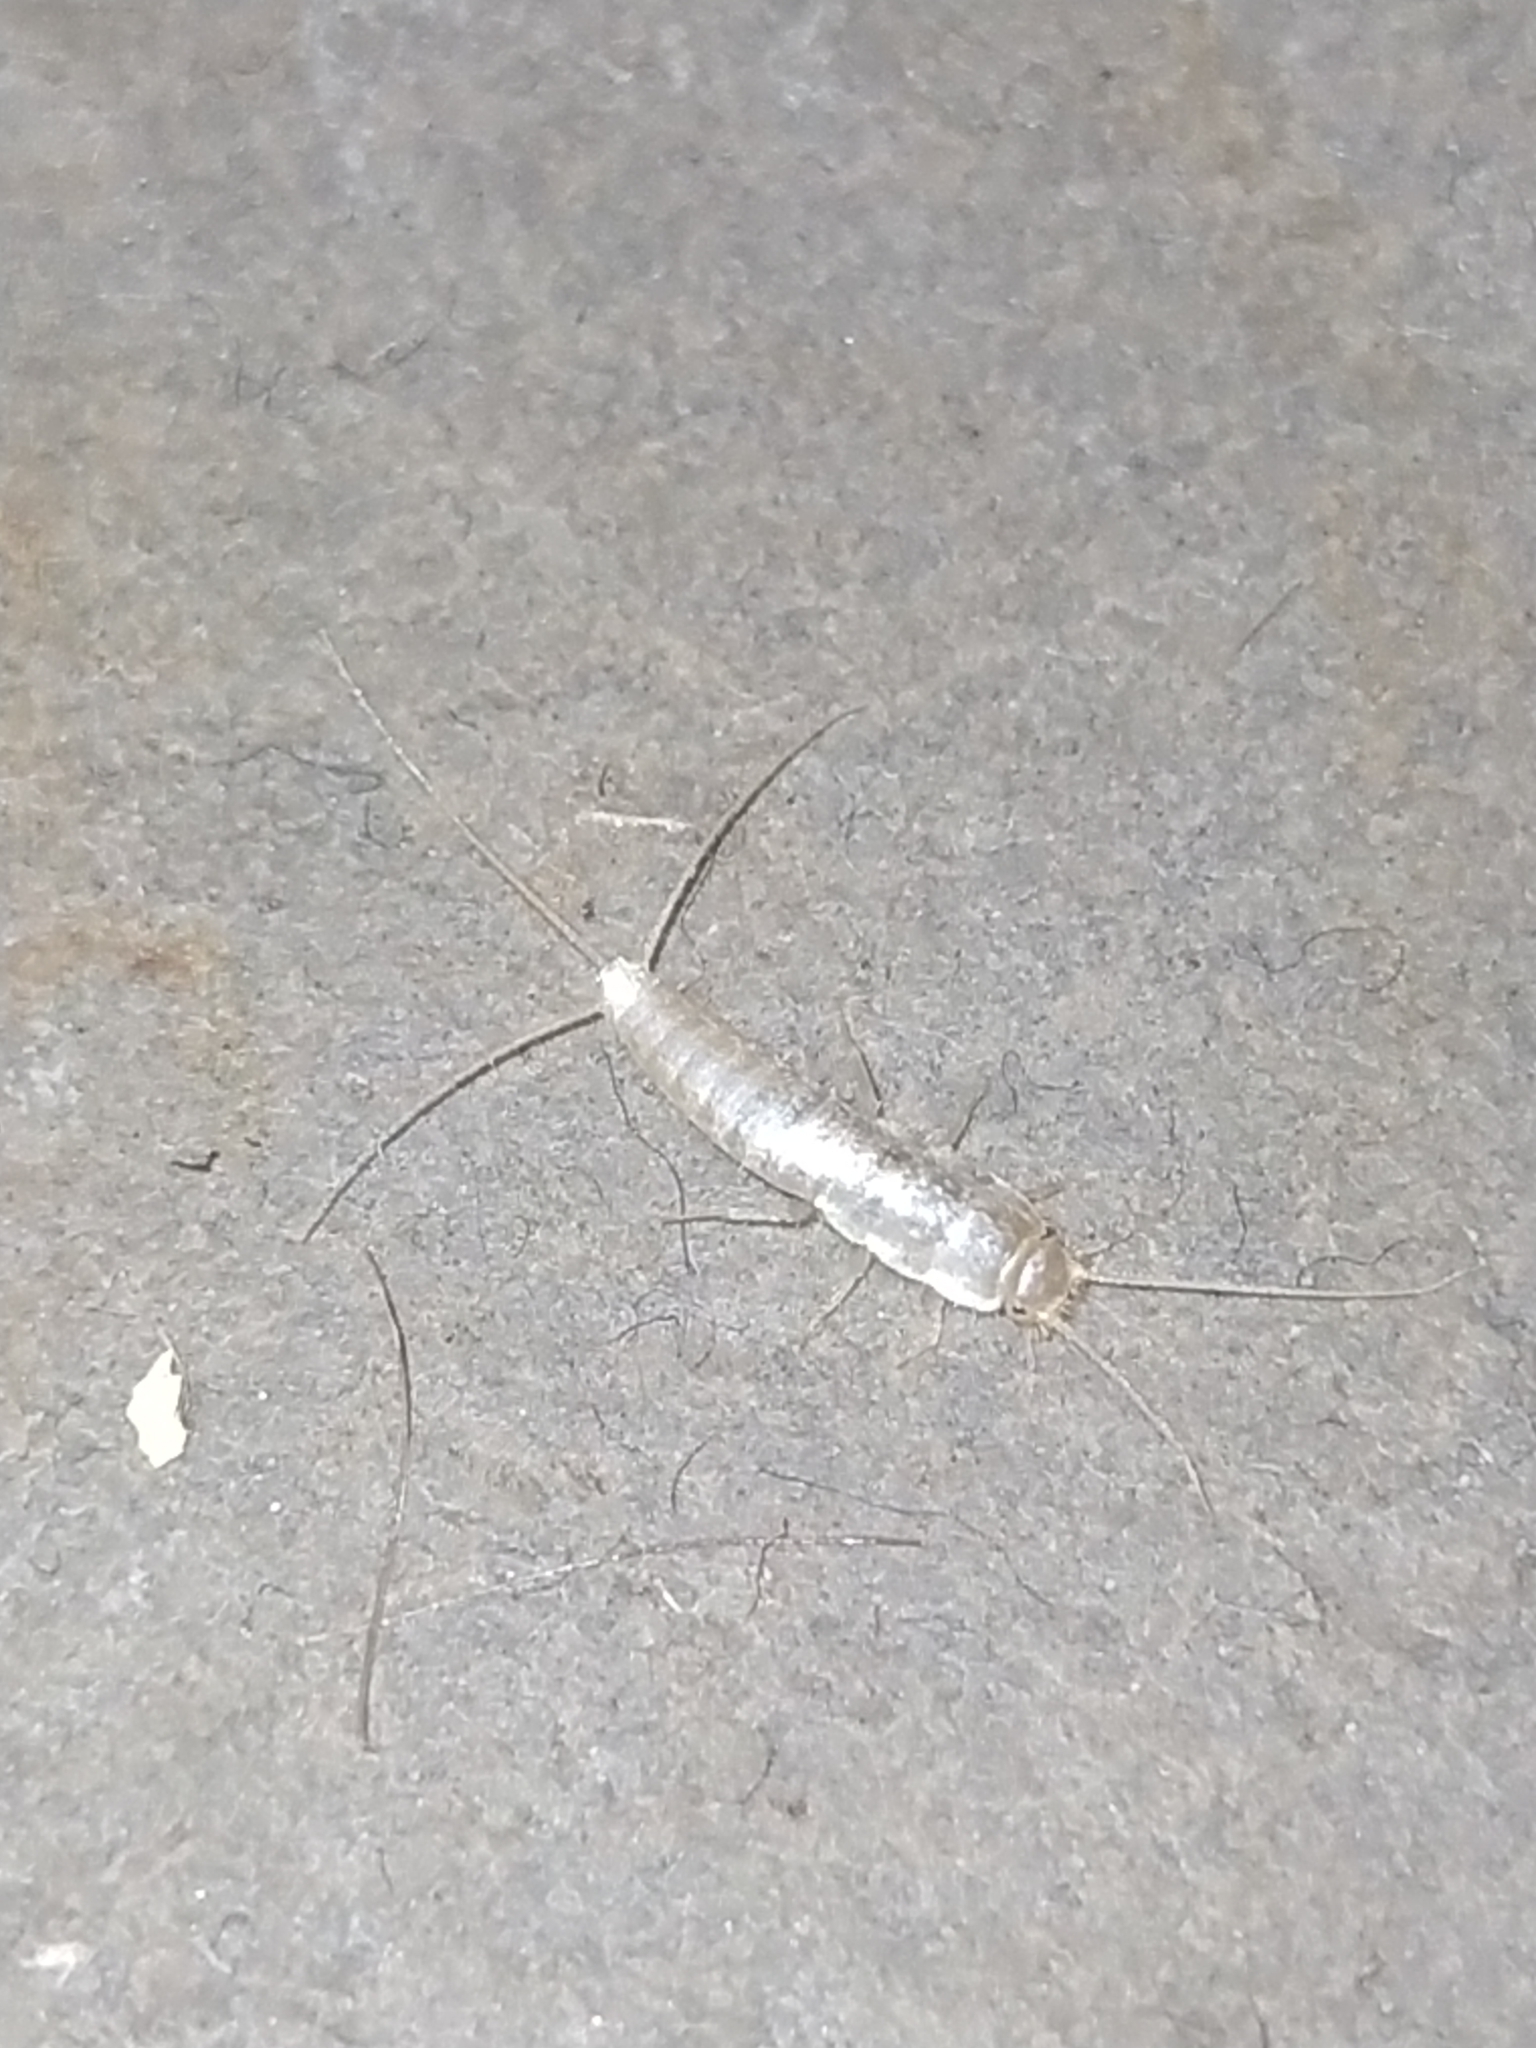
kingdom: Animalia
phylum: Arthropoda
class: Insecta
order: Zygentoma
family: Lepismatidae
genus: Ctenolepisma
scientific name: Ctenolepisma calvum
